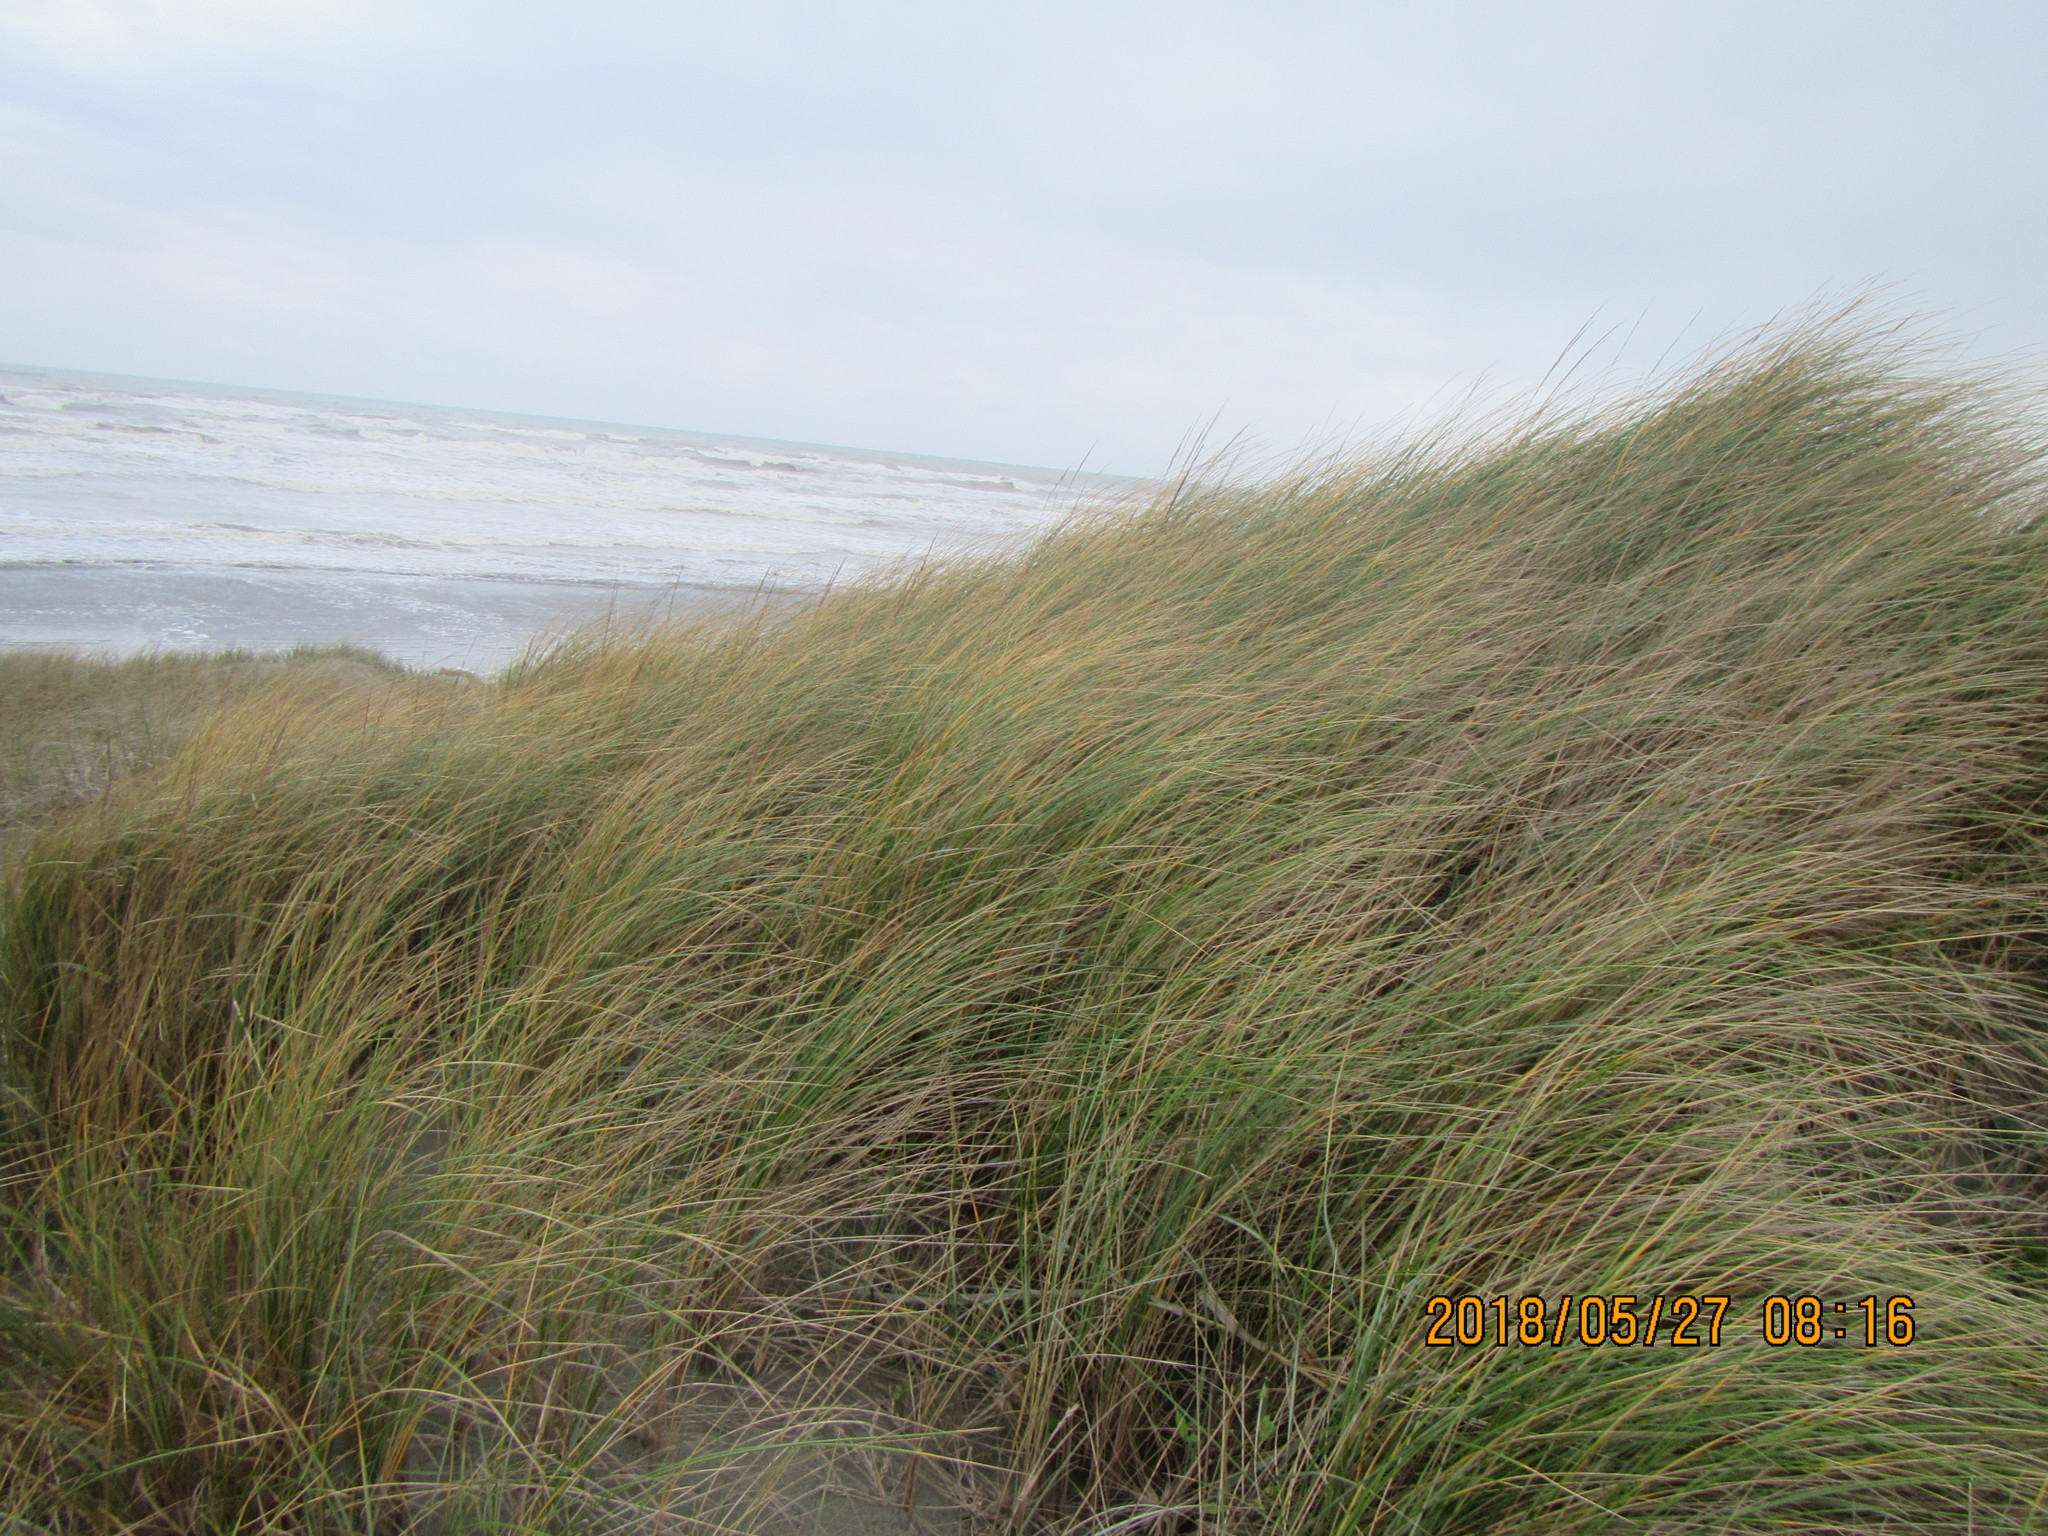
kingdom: Plantae
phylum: Tracheophyta
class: Liliopsida
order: Poales
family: Poaceae
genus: Calamagrostis
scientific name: Calamagrostis arenaria
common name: European beachgrass
